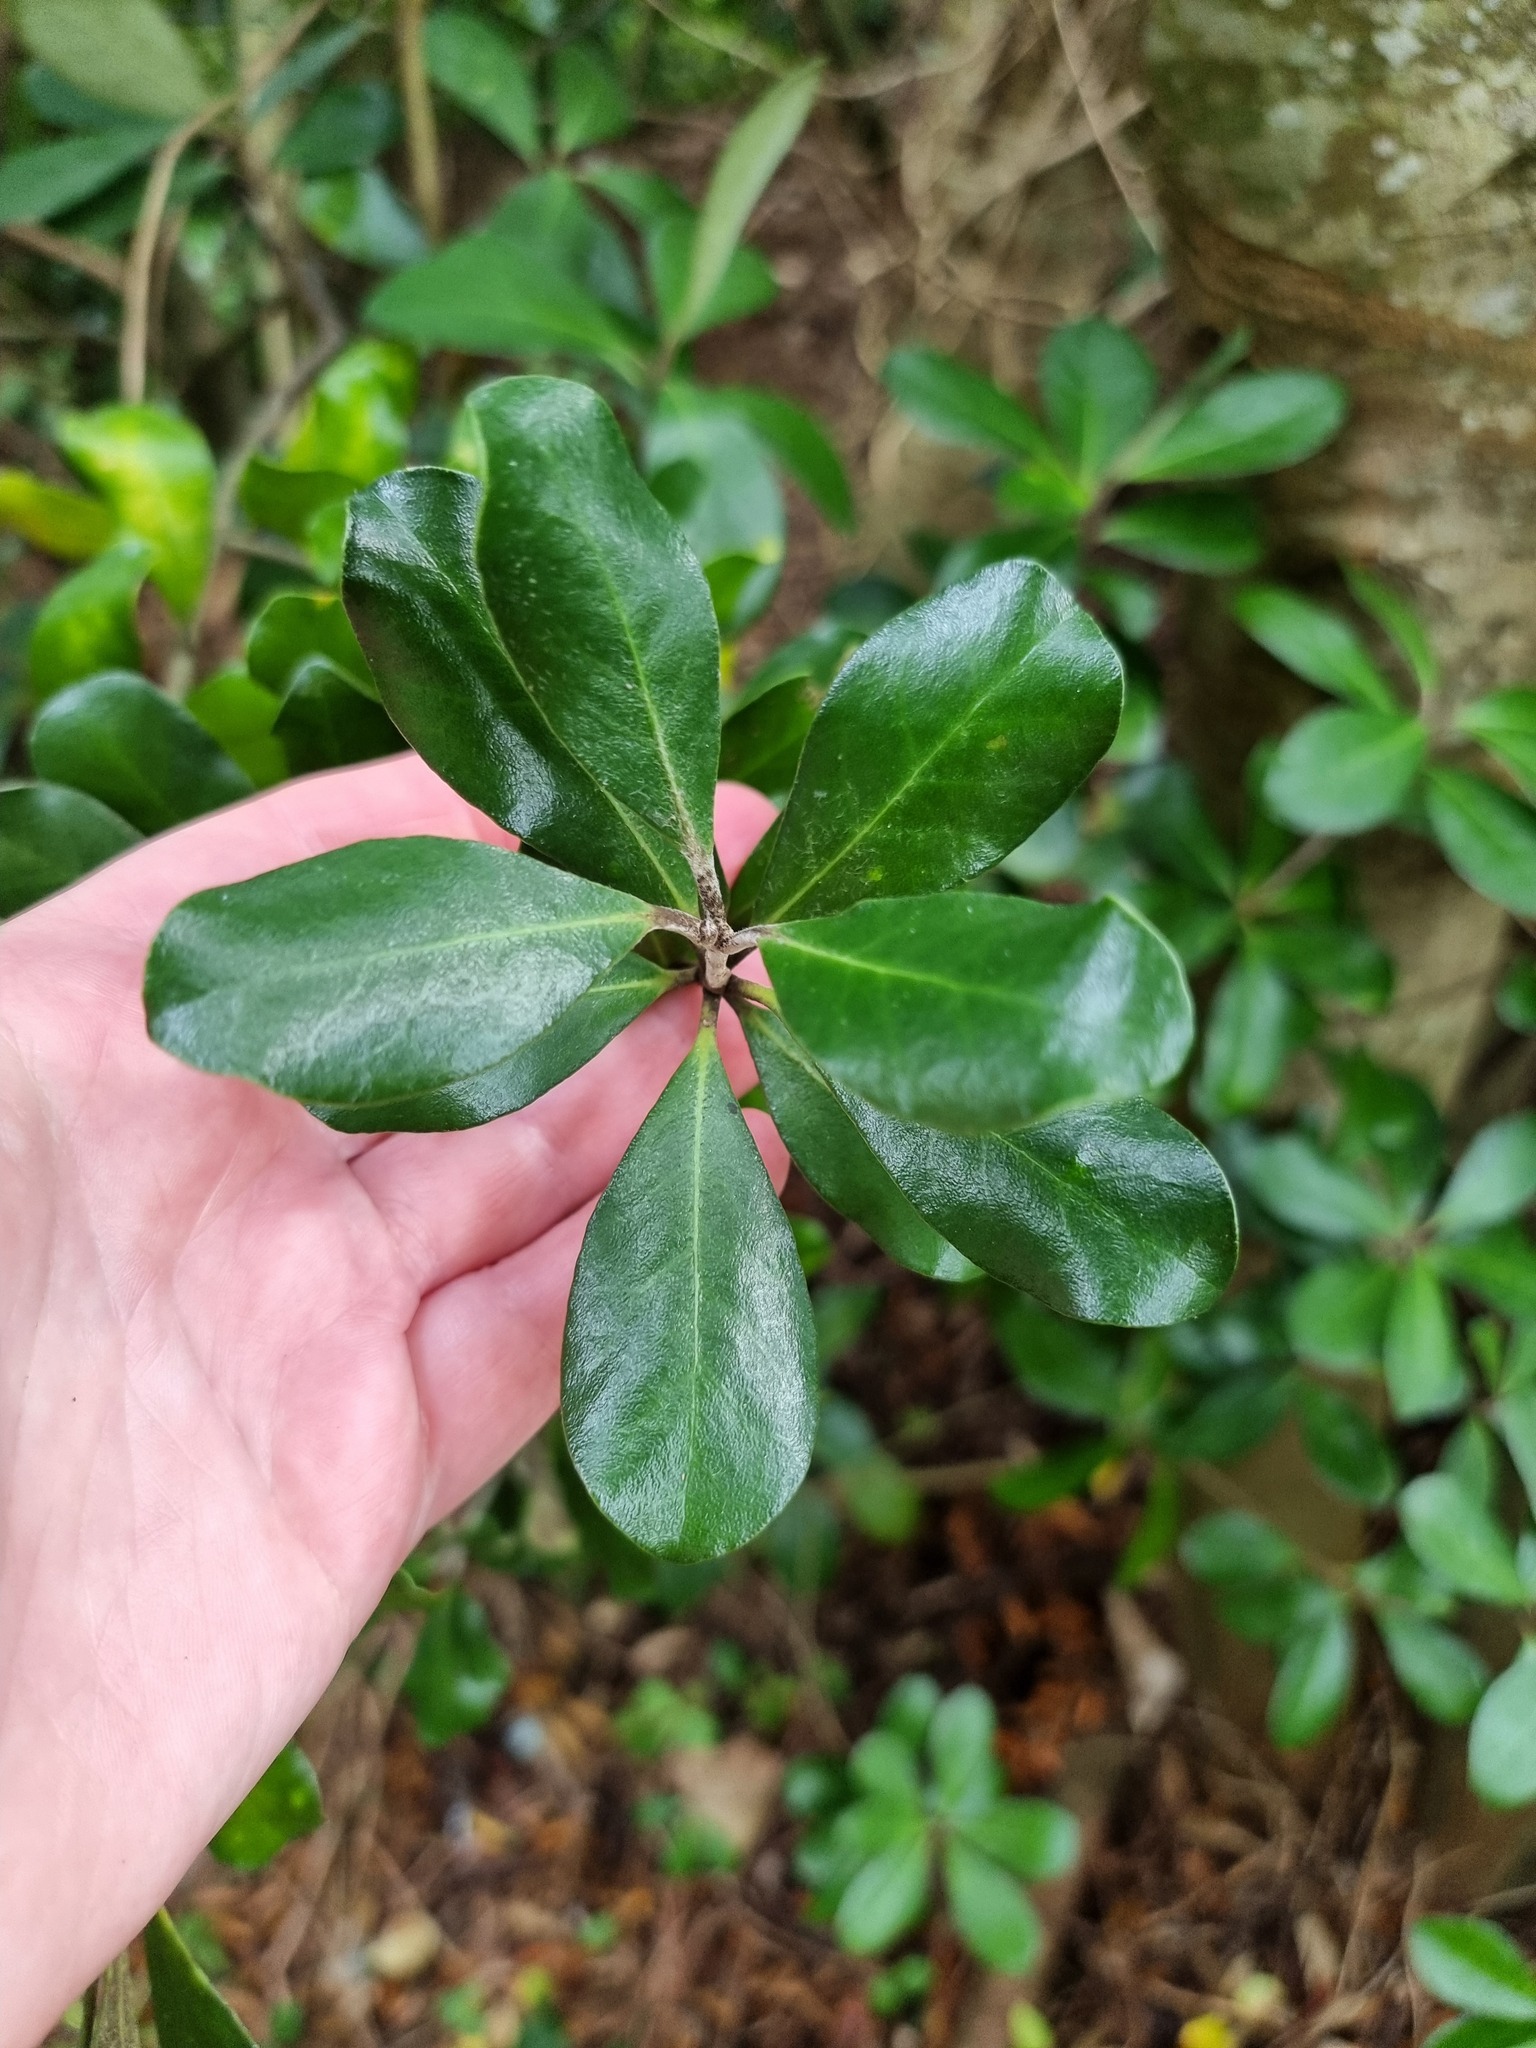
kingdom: Plantae
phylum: Tracheophyta
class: Magnoliopsida
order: Apiales
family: Pittosporaceae
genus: Pittosporum
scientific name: Pittosporum crassifolium
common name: Karo
